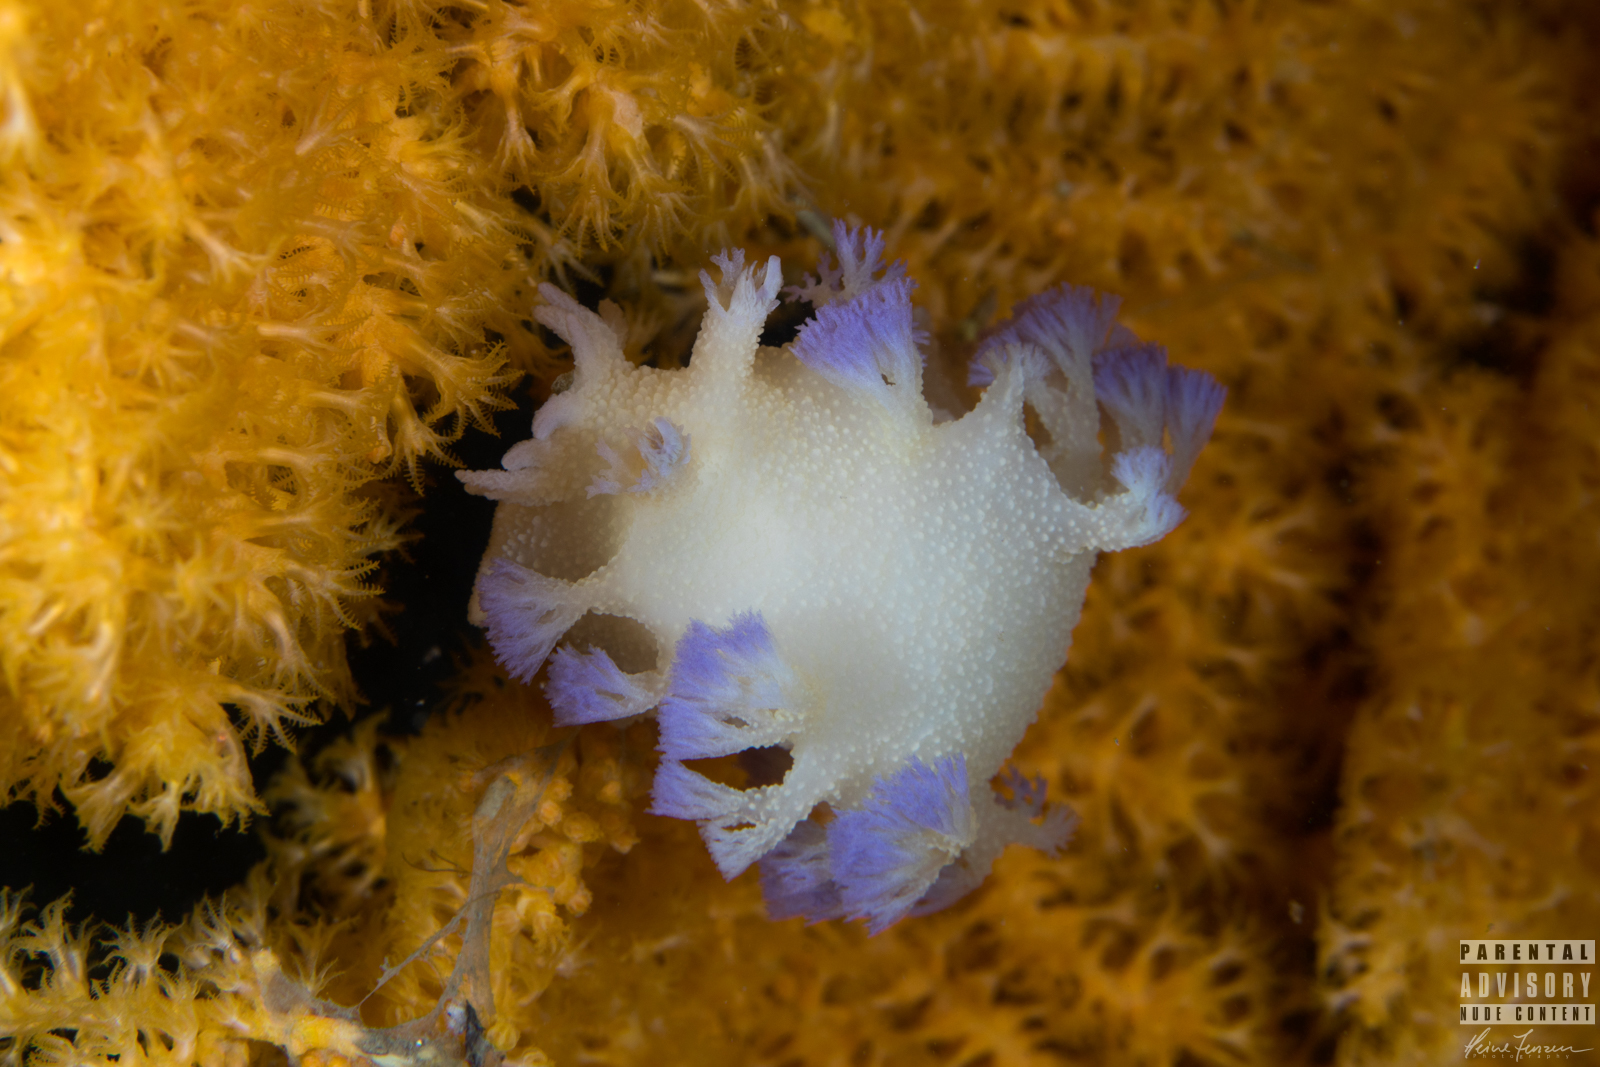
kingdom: Animalia
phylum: Mollusca
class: Gastropoda
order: Nudibranchia
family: Tritoniidae
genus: Tritonia
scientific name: Tritonia griegi
